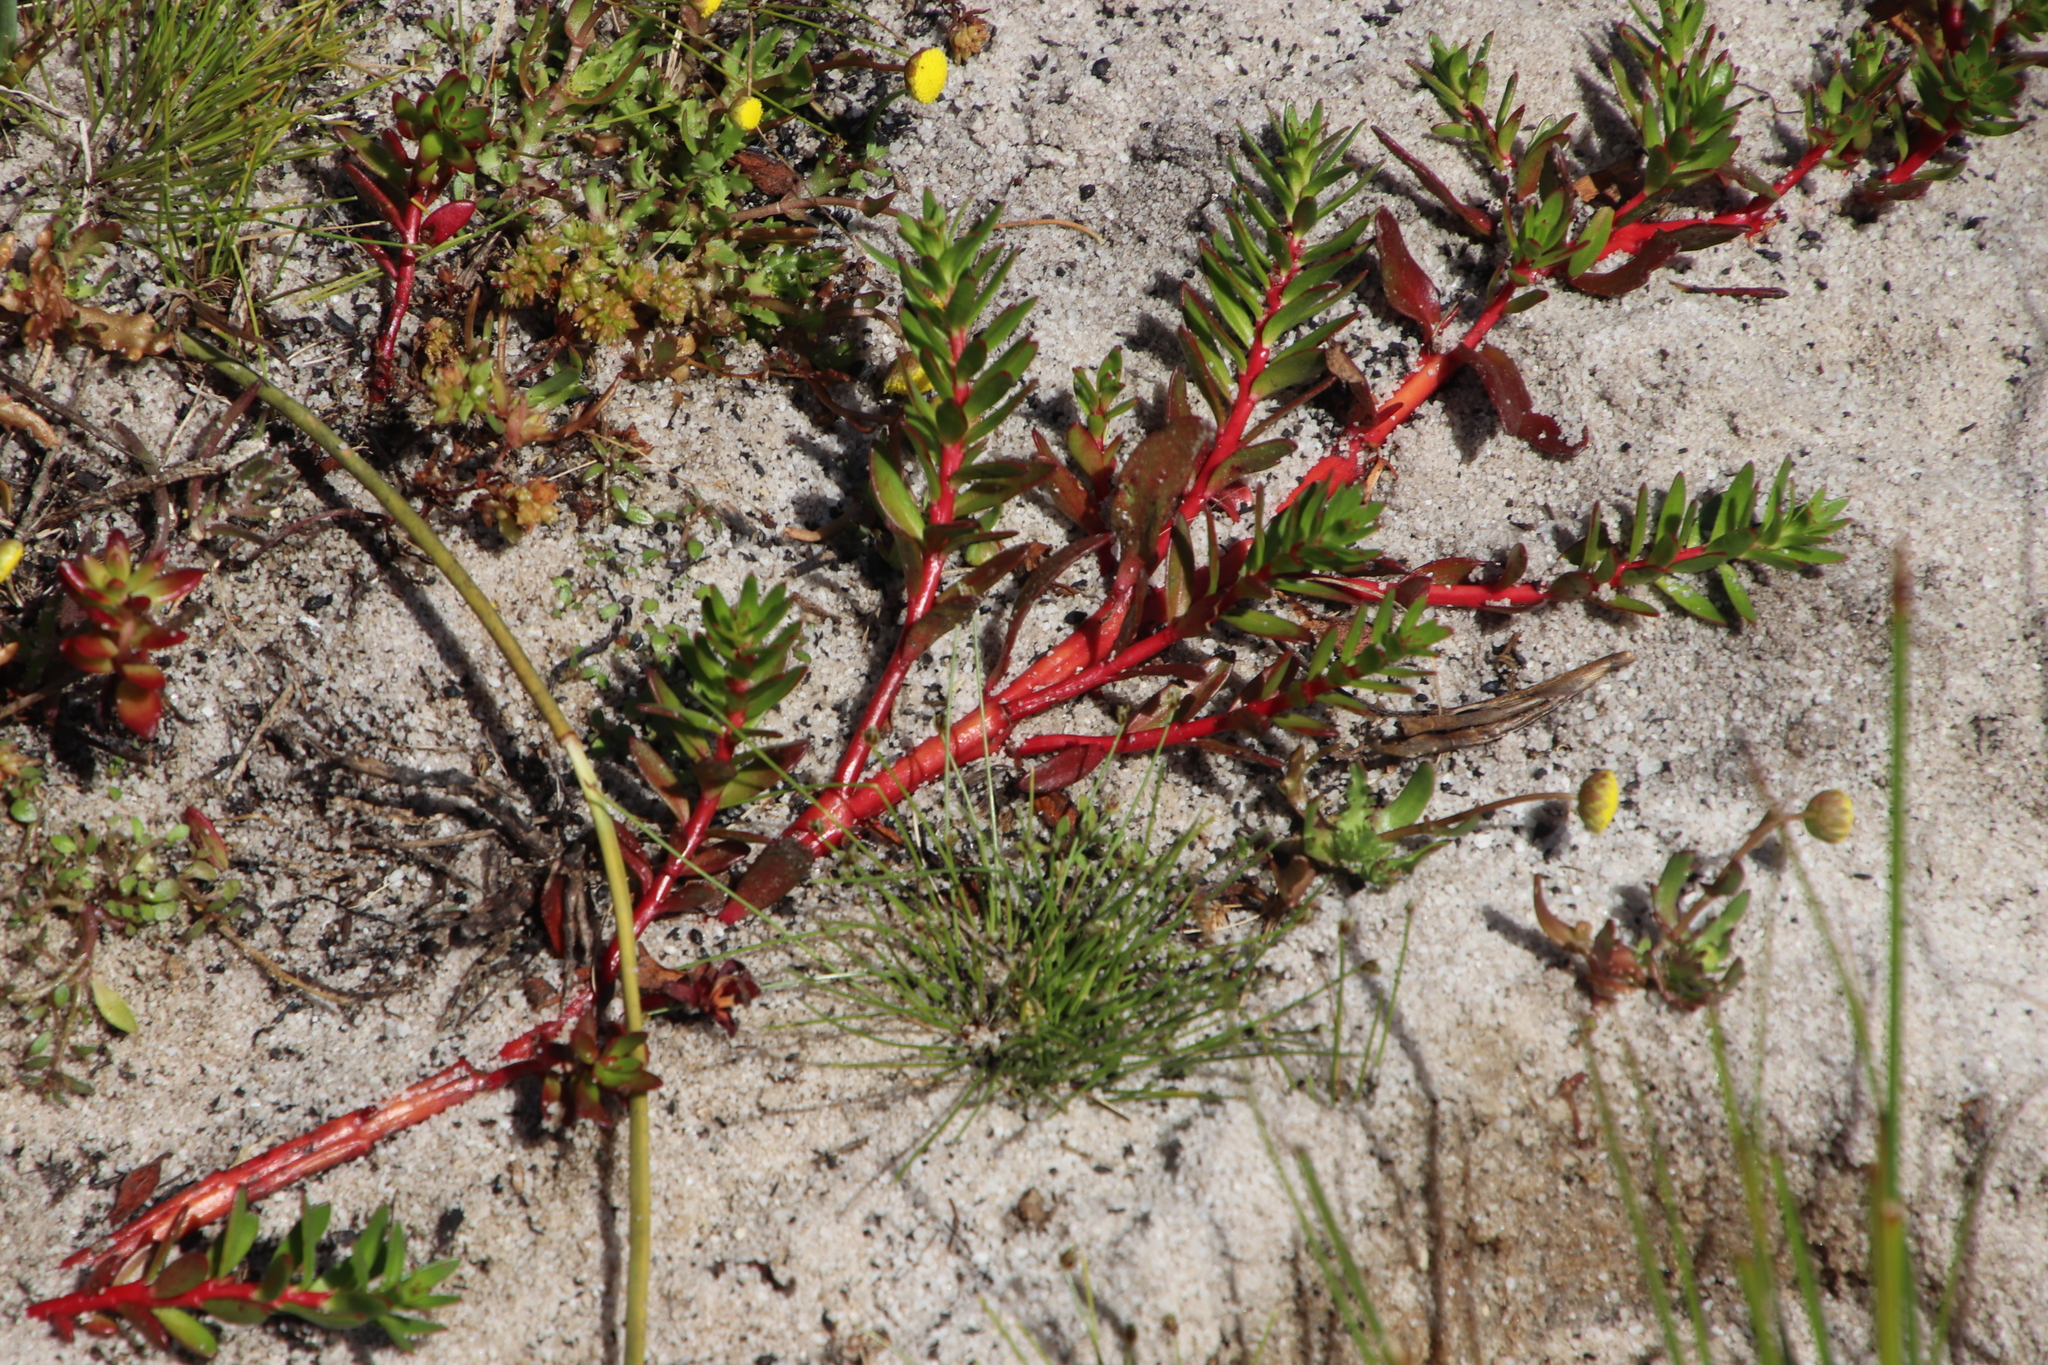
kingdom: Plantae
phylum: Tracheophyta
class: Magnoliopsida
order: Saxifragales
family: Haloragaceae
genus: Laurembergia
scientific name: Laurembergia repens
